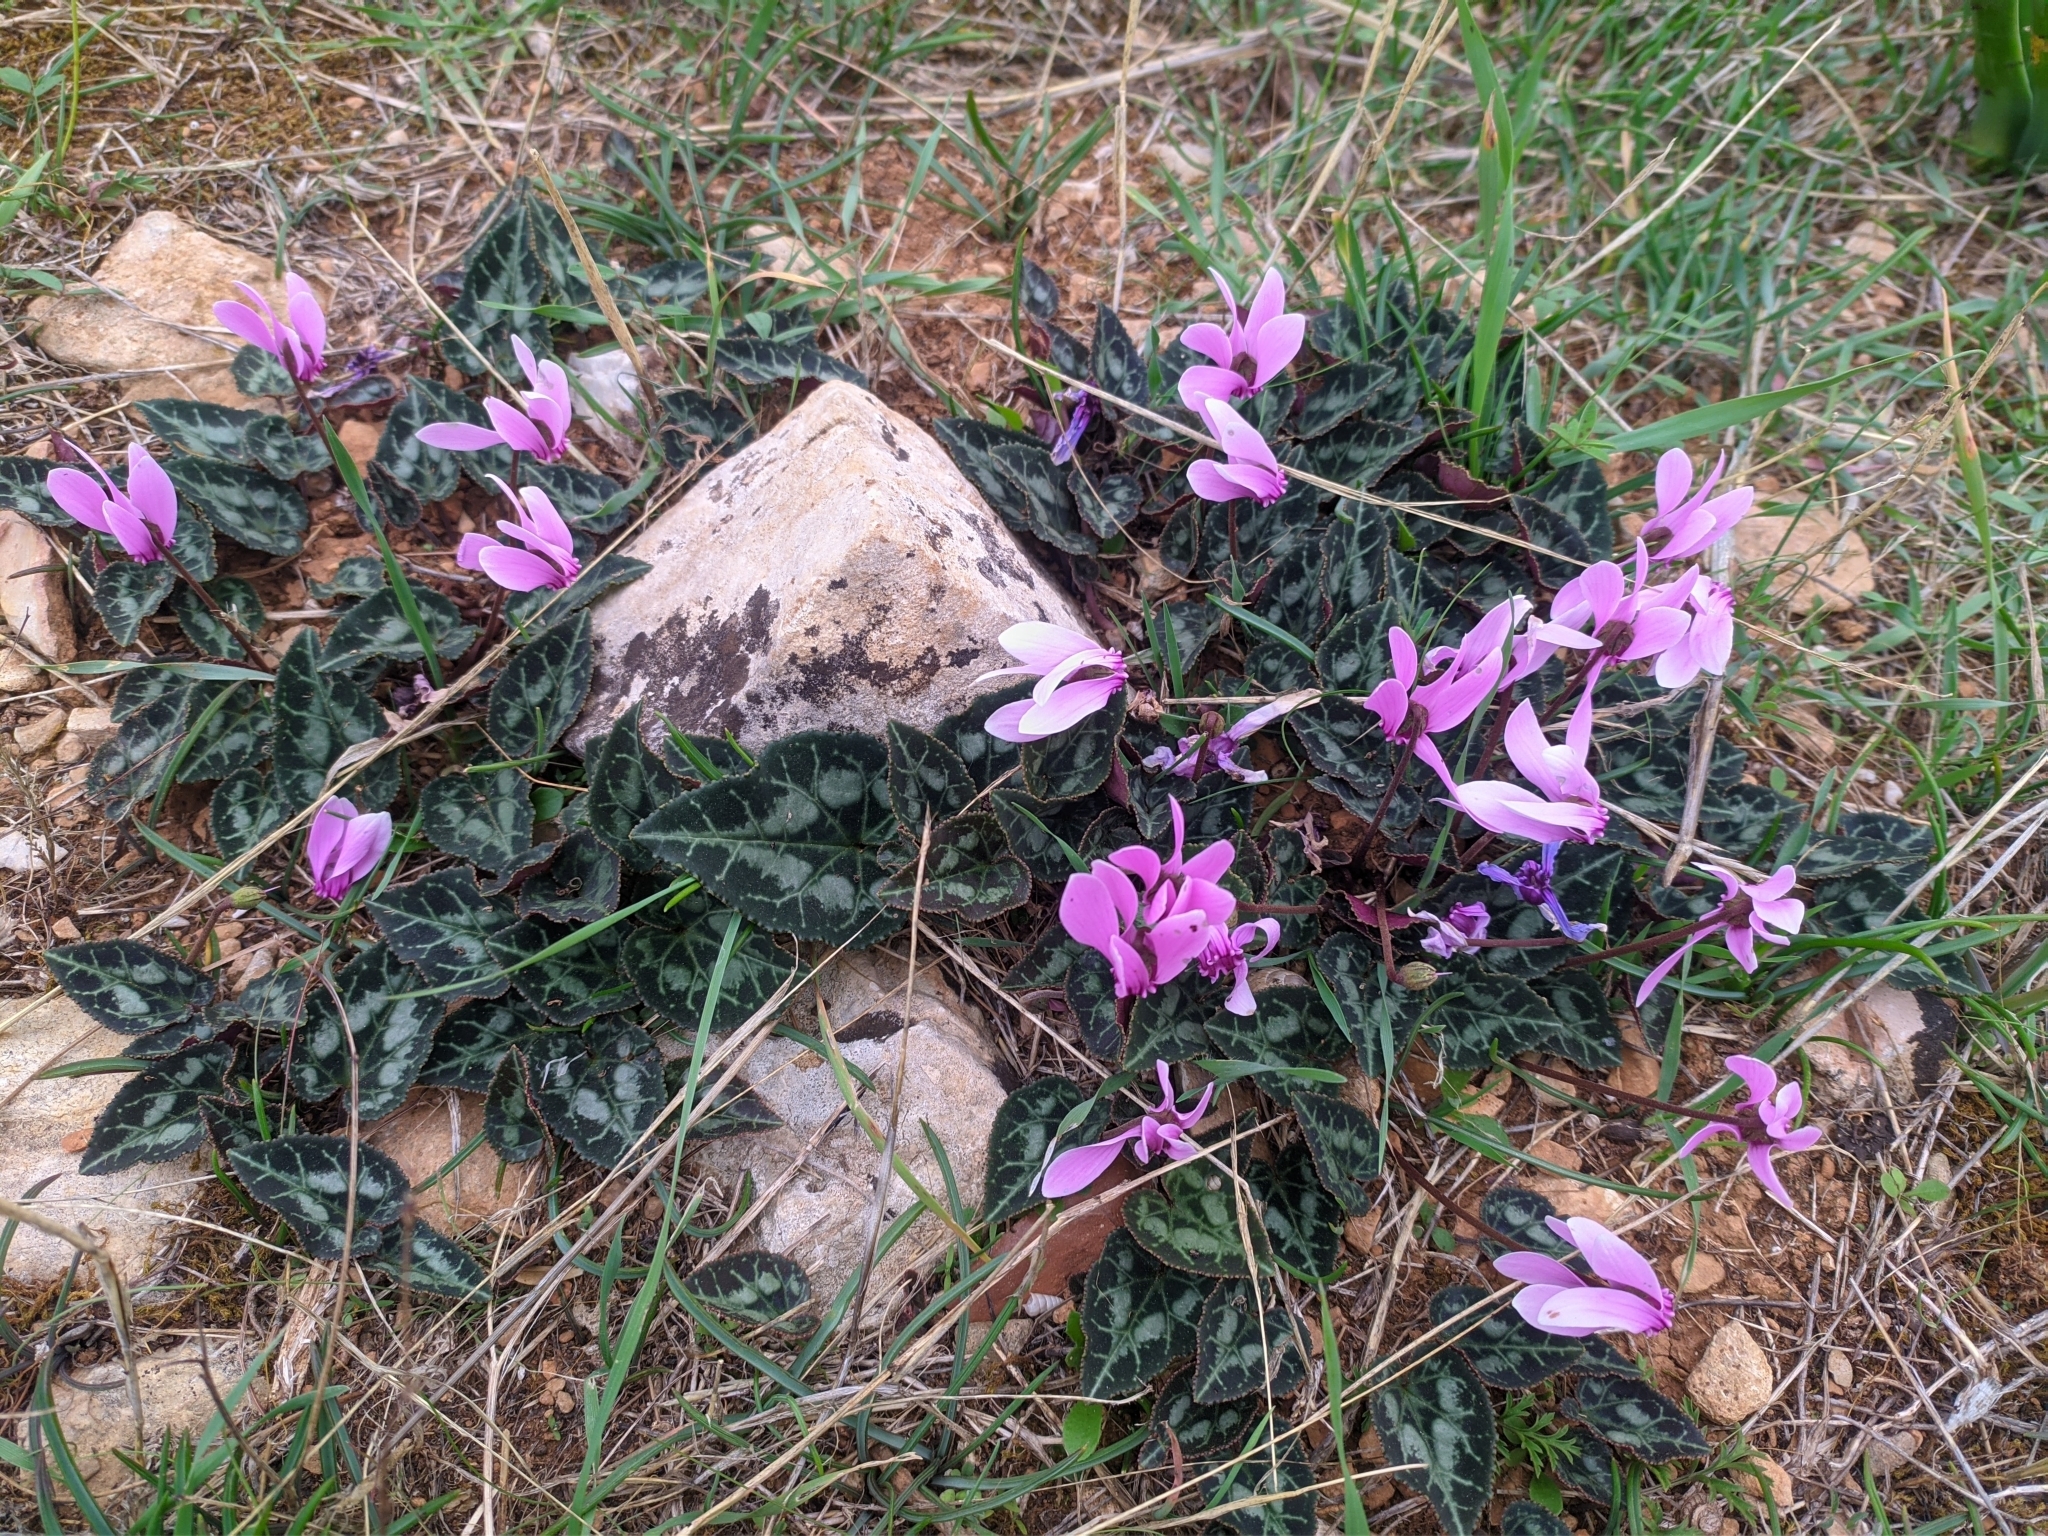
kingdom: Plantae
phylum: Tracheophyta
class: Magnoliopsida
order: Ericales
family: Primulaceae
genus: Cyclamen
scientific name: Cyclamen graecum
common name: Greek cyclamen
